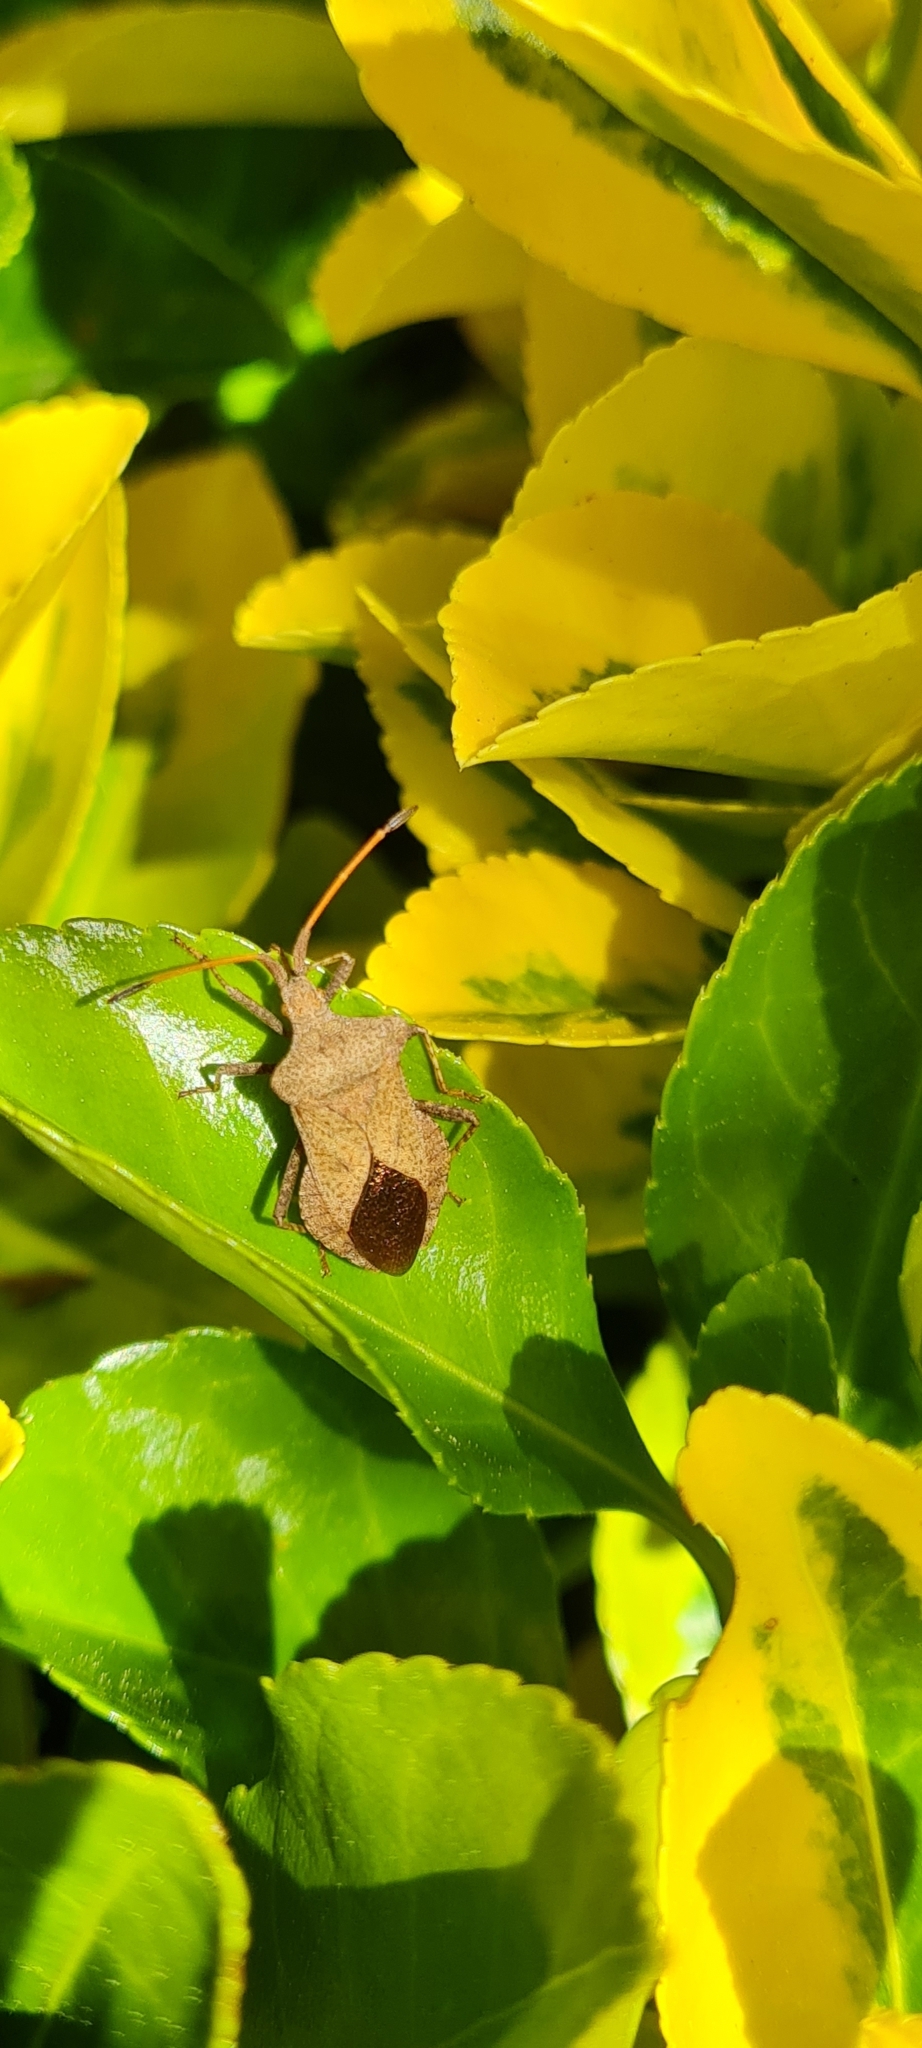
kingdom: Animalia
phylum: Arthropoda
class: Insecta
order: Hemiptera
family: Coreidae
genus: Coreus
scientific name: Coreus marginatus
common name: Dock bug
